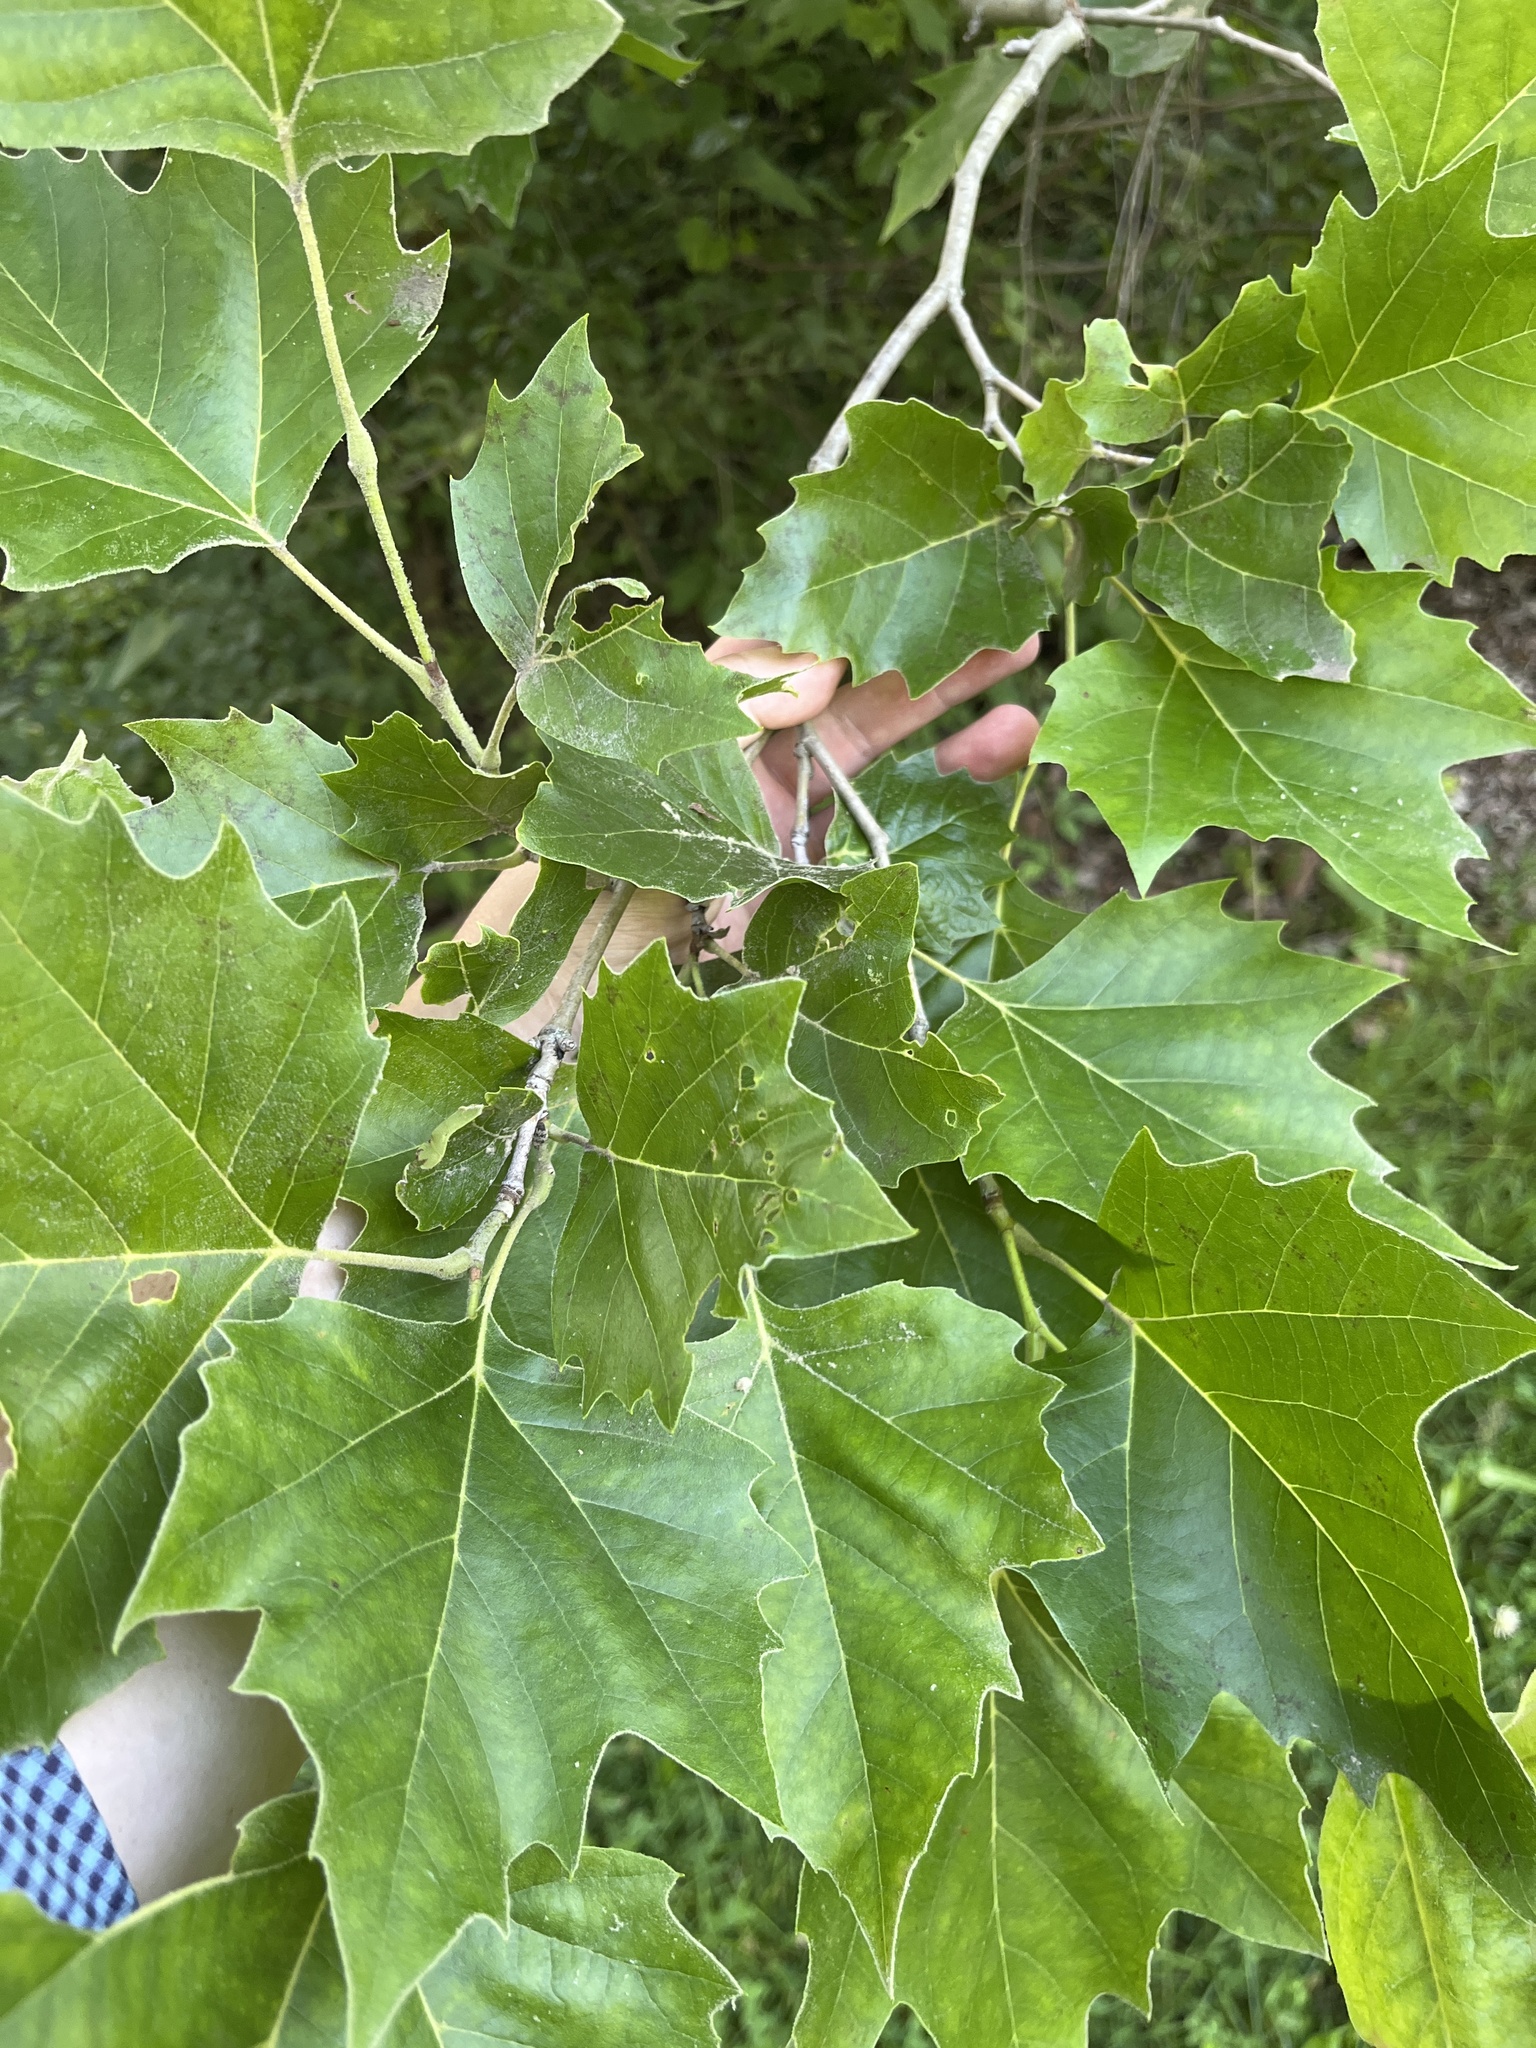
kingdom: Plantae
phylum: Tracheophyta
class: Magnoliopsida
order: Proteales
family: Platanaceae
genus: Platanus
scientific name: Platanus occidentalis
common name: American sycamore
